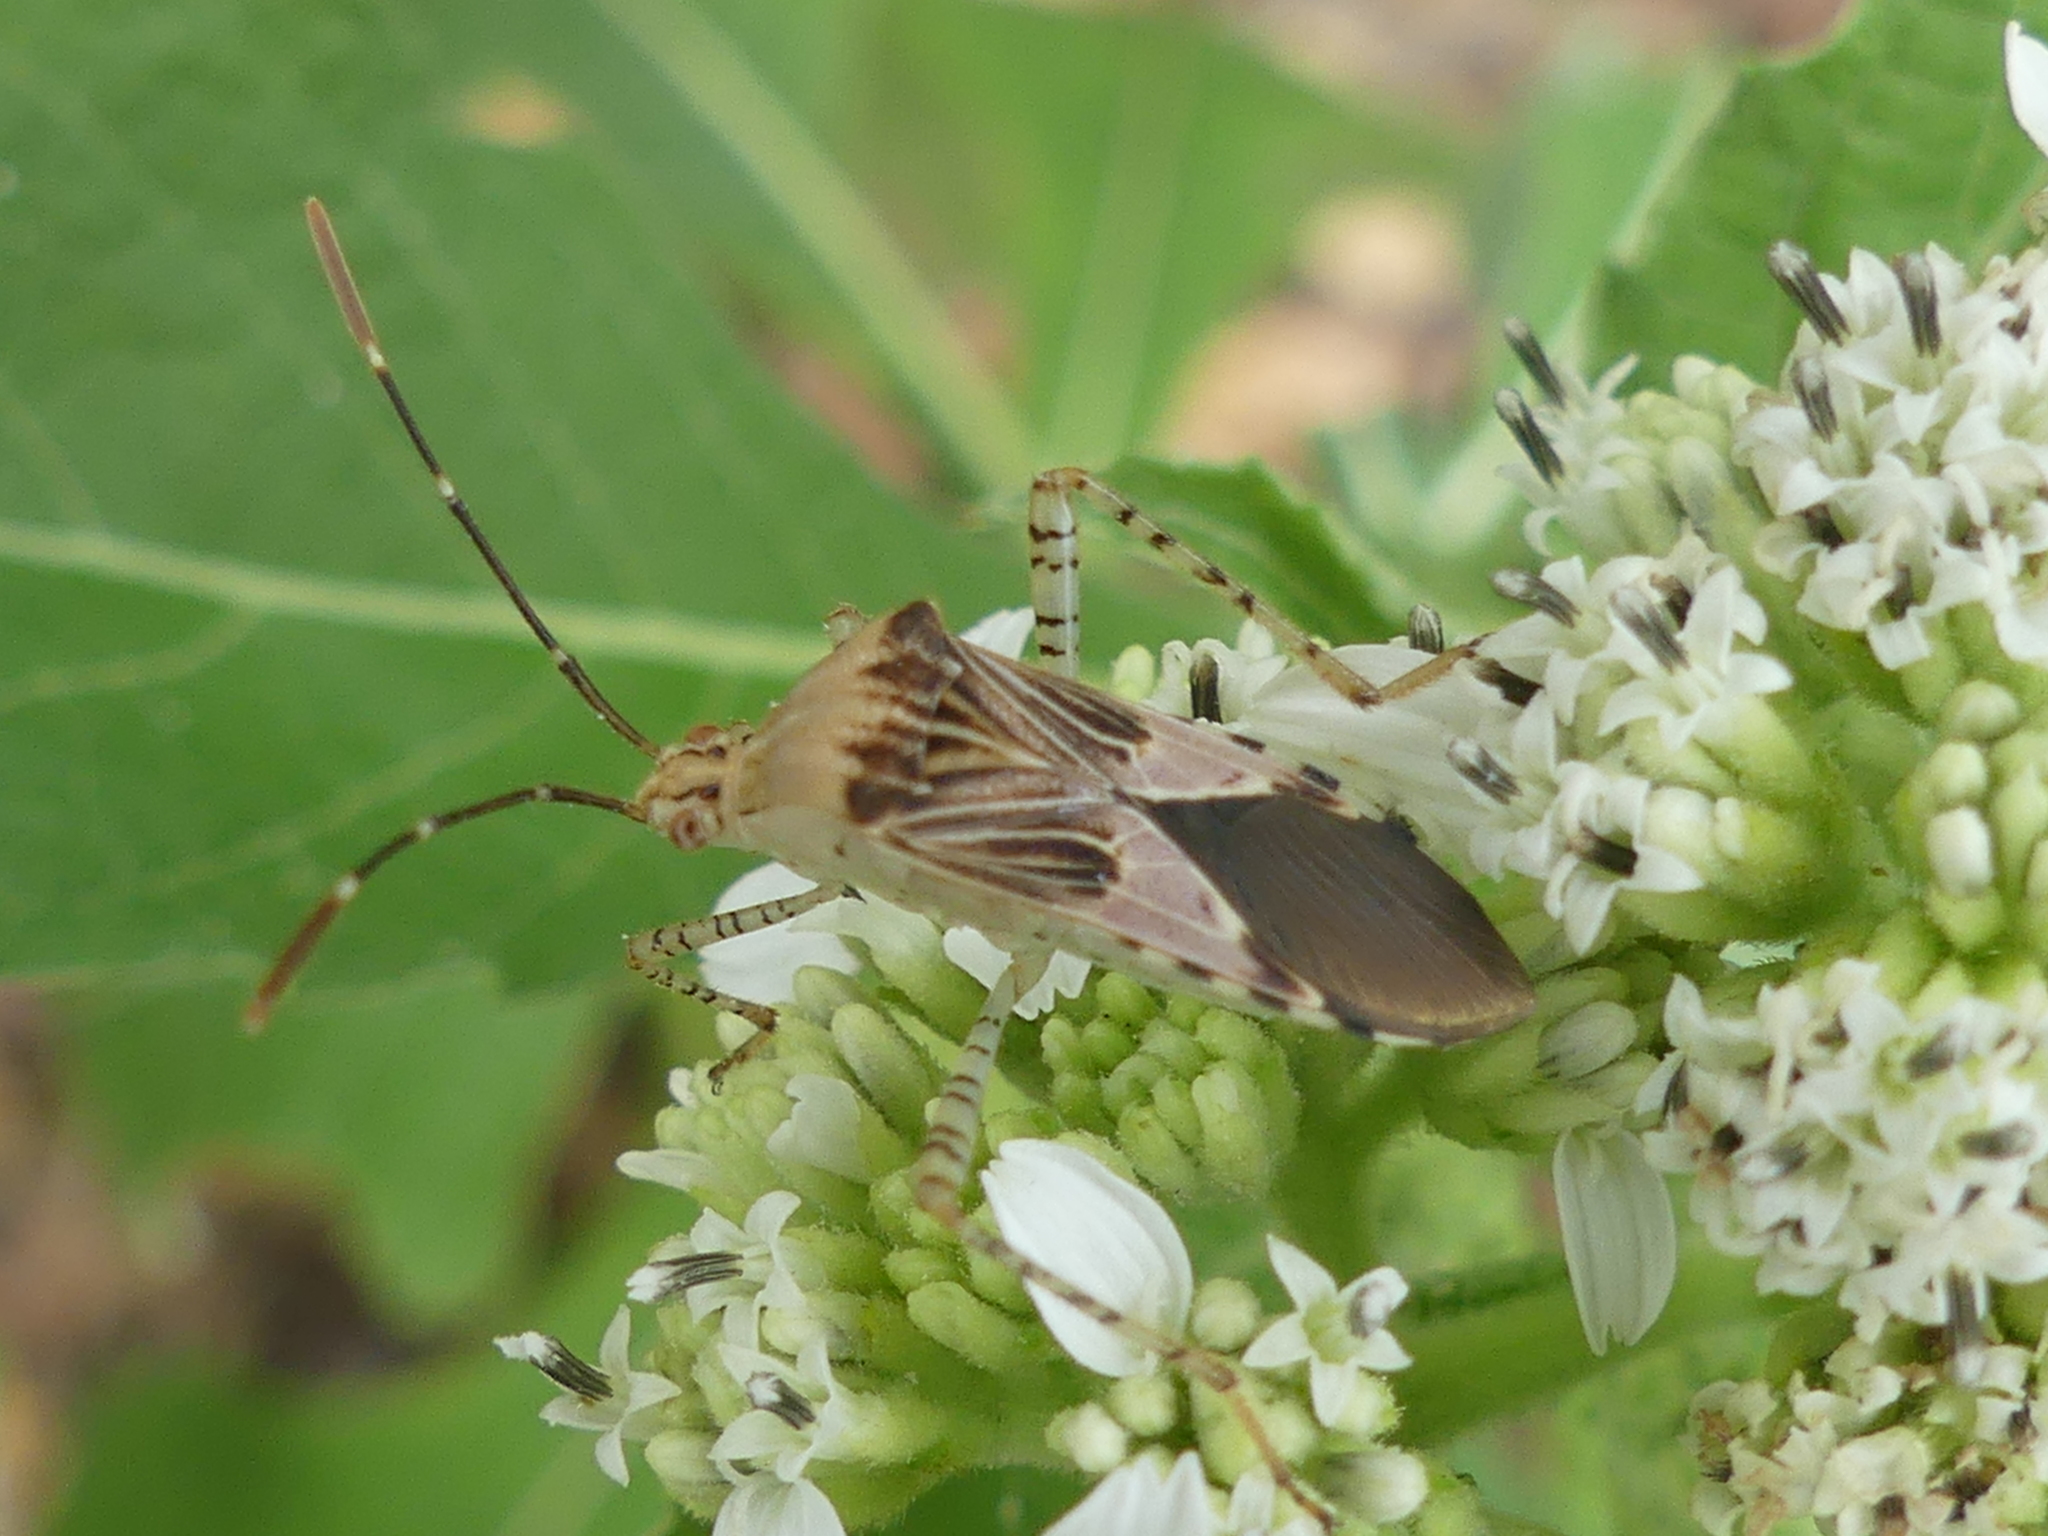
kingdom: Animalia
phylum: Arthropoda
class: Insecta
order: Hemiptera
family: Coreidae
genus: Hypselonotus
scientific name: Hypselonotus punctiventris
